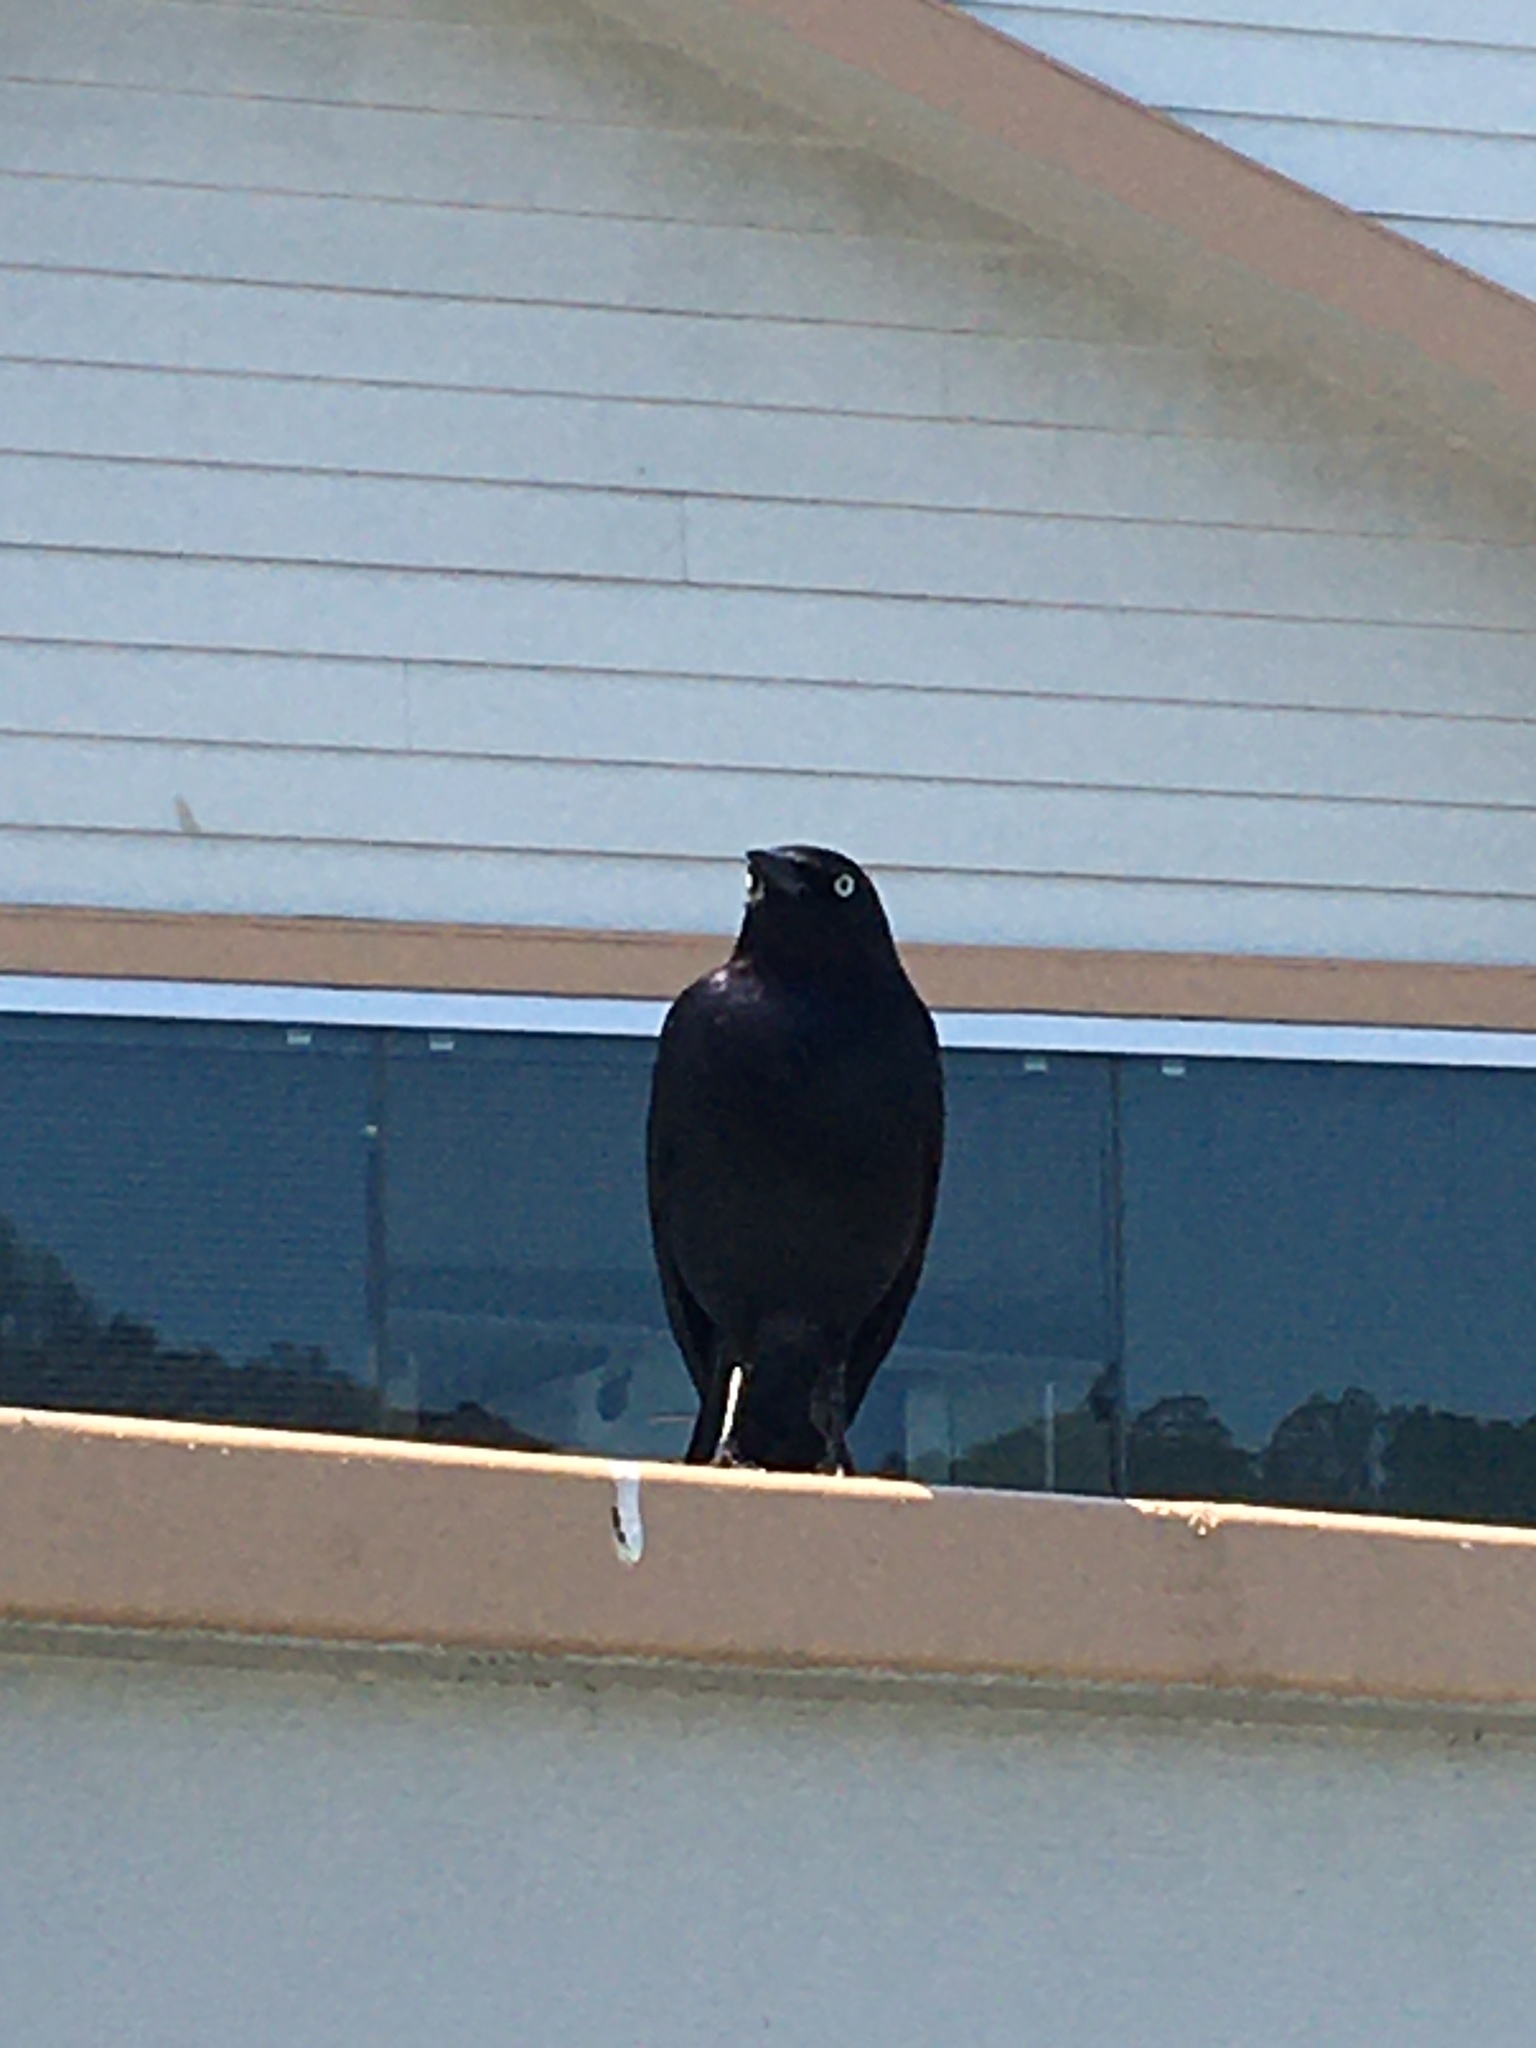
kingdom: Animalia
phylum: Chordata
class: Aves
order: Passeriformes
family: Icteridae
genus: Euphagus
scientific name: Euphagus cyanocephalus
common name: Brewer's blackbird
